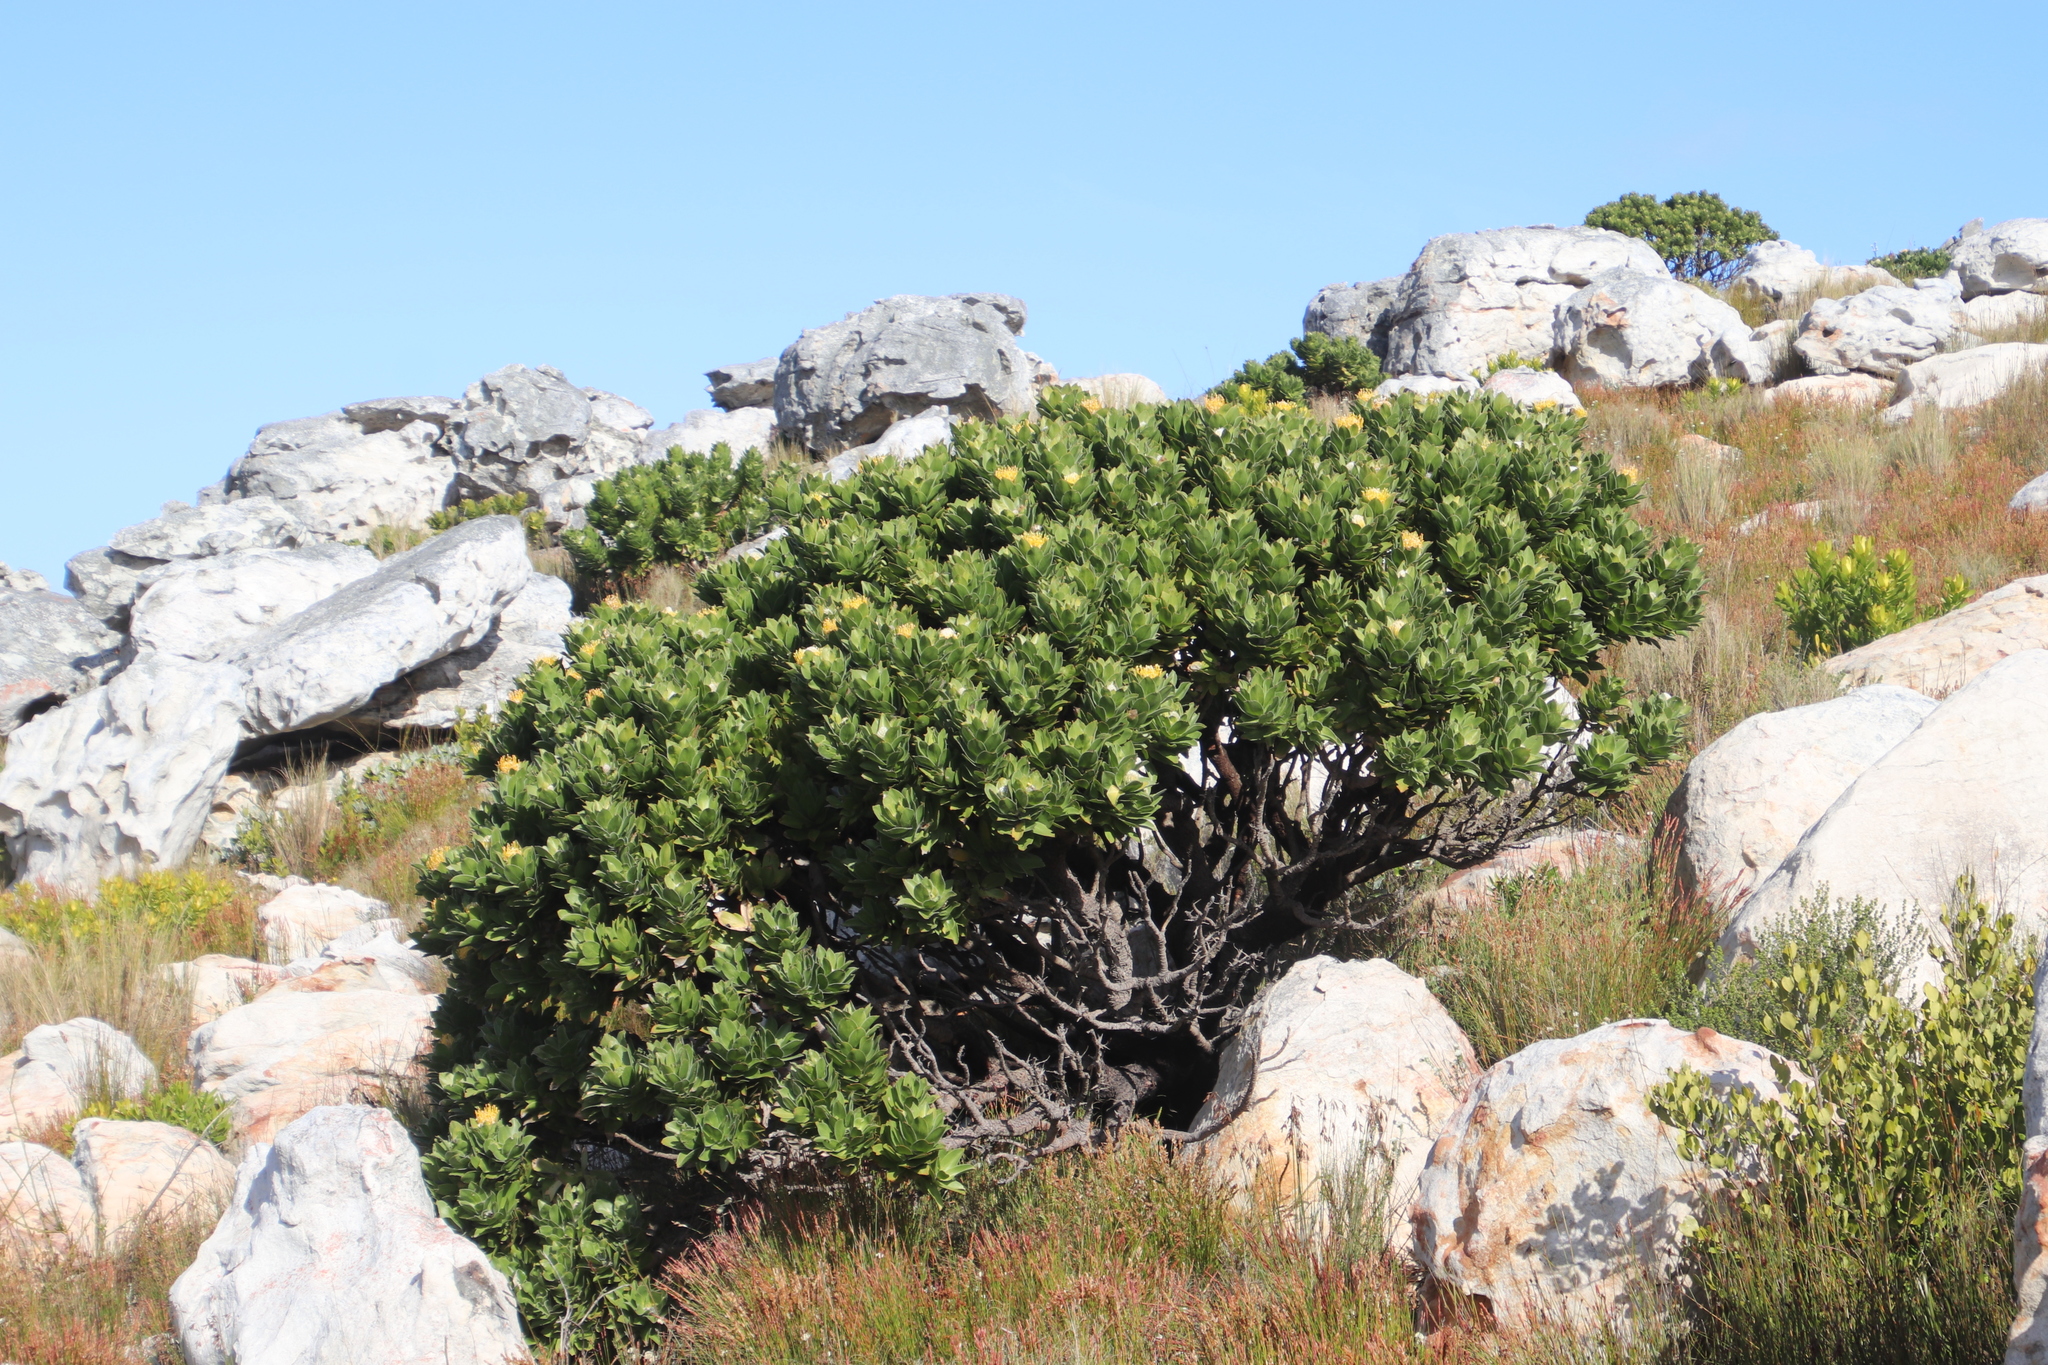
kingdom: Plantae
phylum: Tracheophyta
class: Magnoliopsida
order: Proteales
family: Proteaceae
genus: Leucospermum
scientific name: Leucospermum conocarpodendron
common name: Tree pincushion
